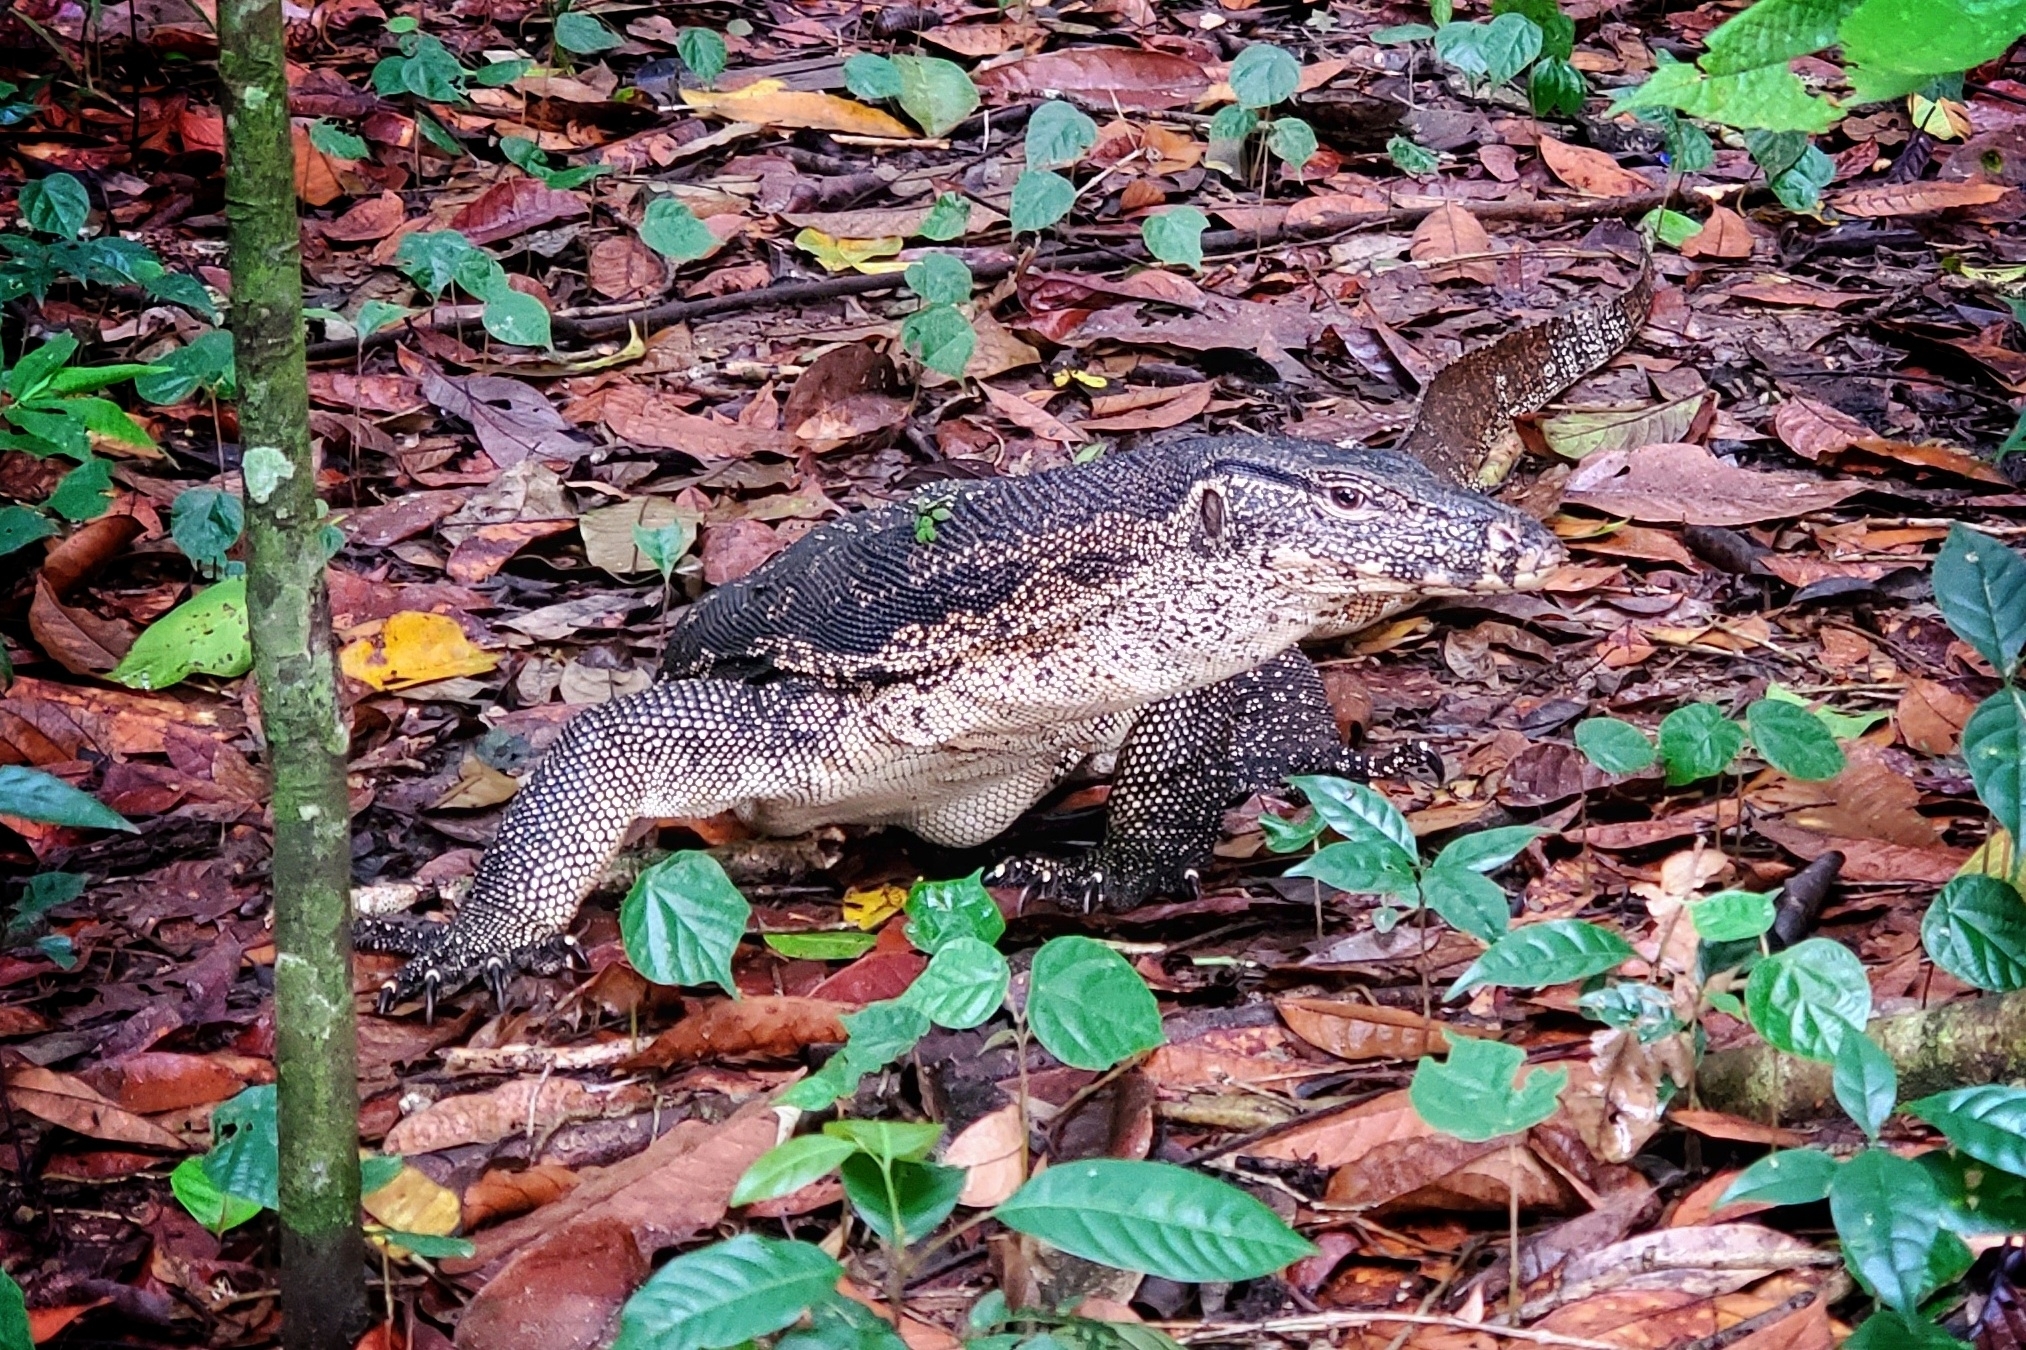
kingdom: Animalia
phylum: Chordata
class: Squamata
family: Varanidae
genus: Varanus
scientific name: Varanus salvator
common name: Common water monitor
